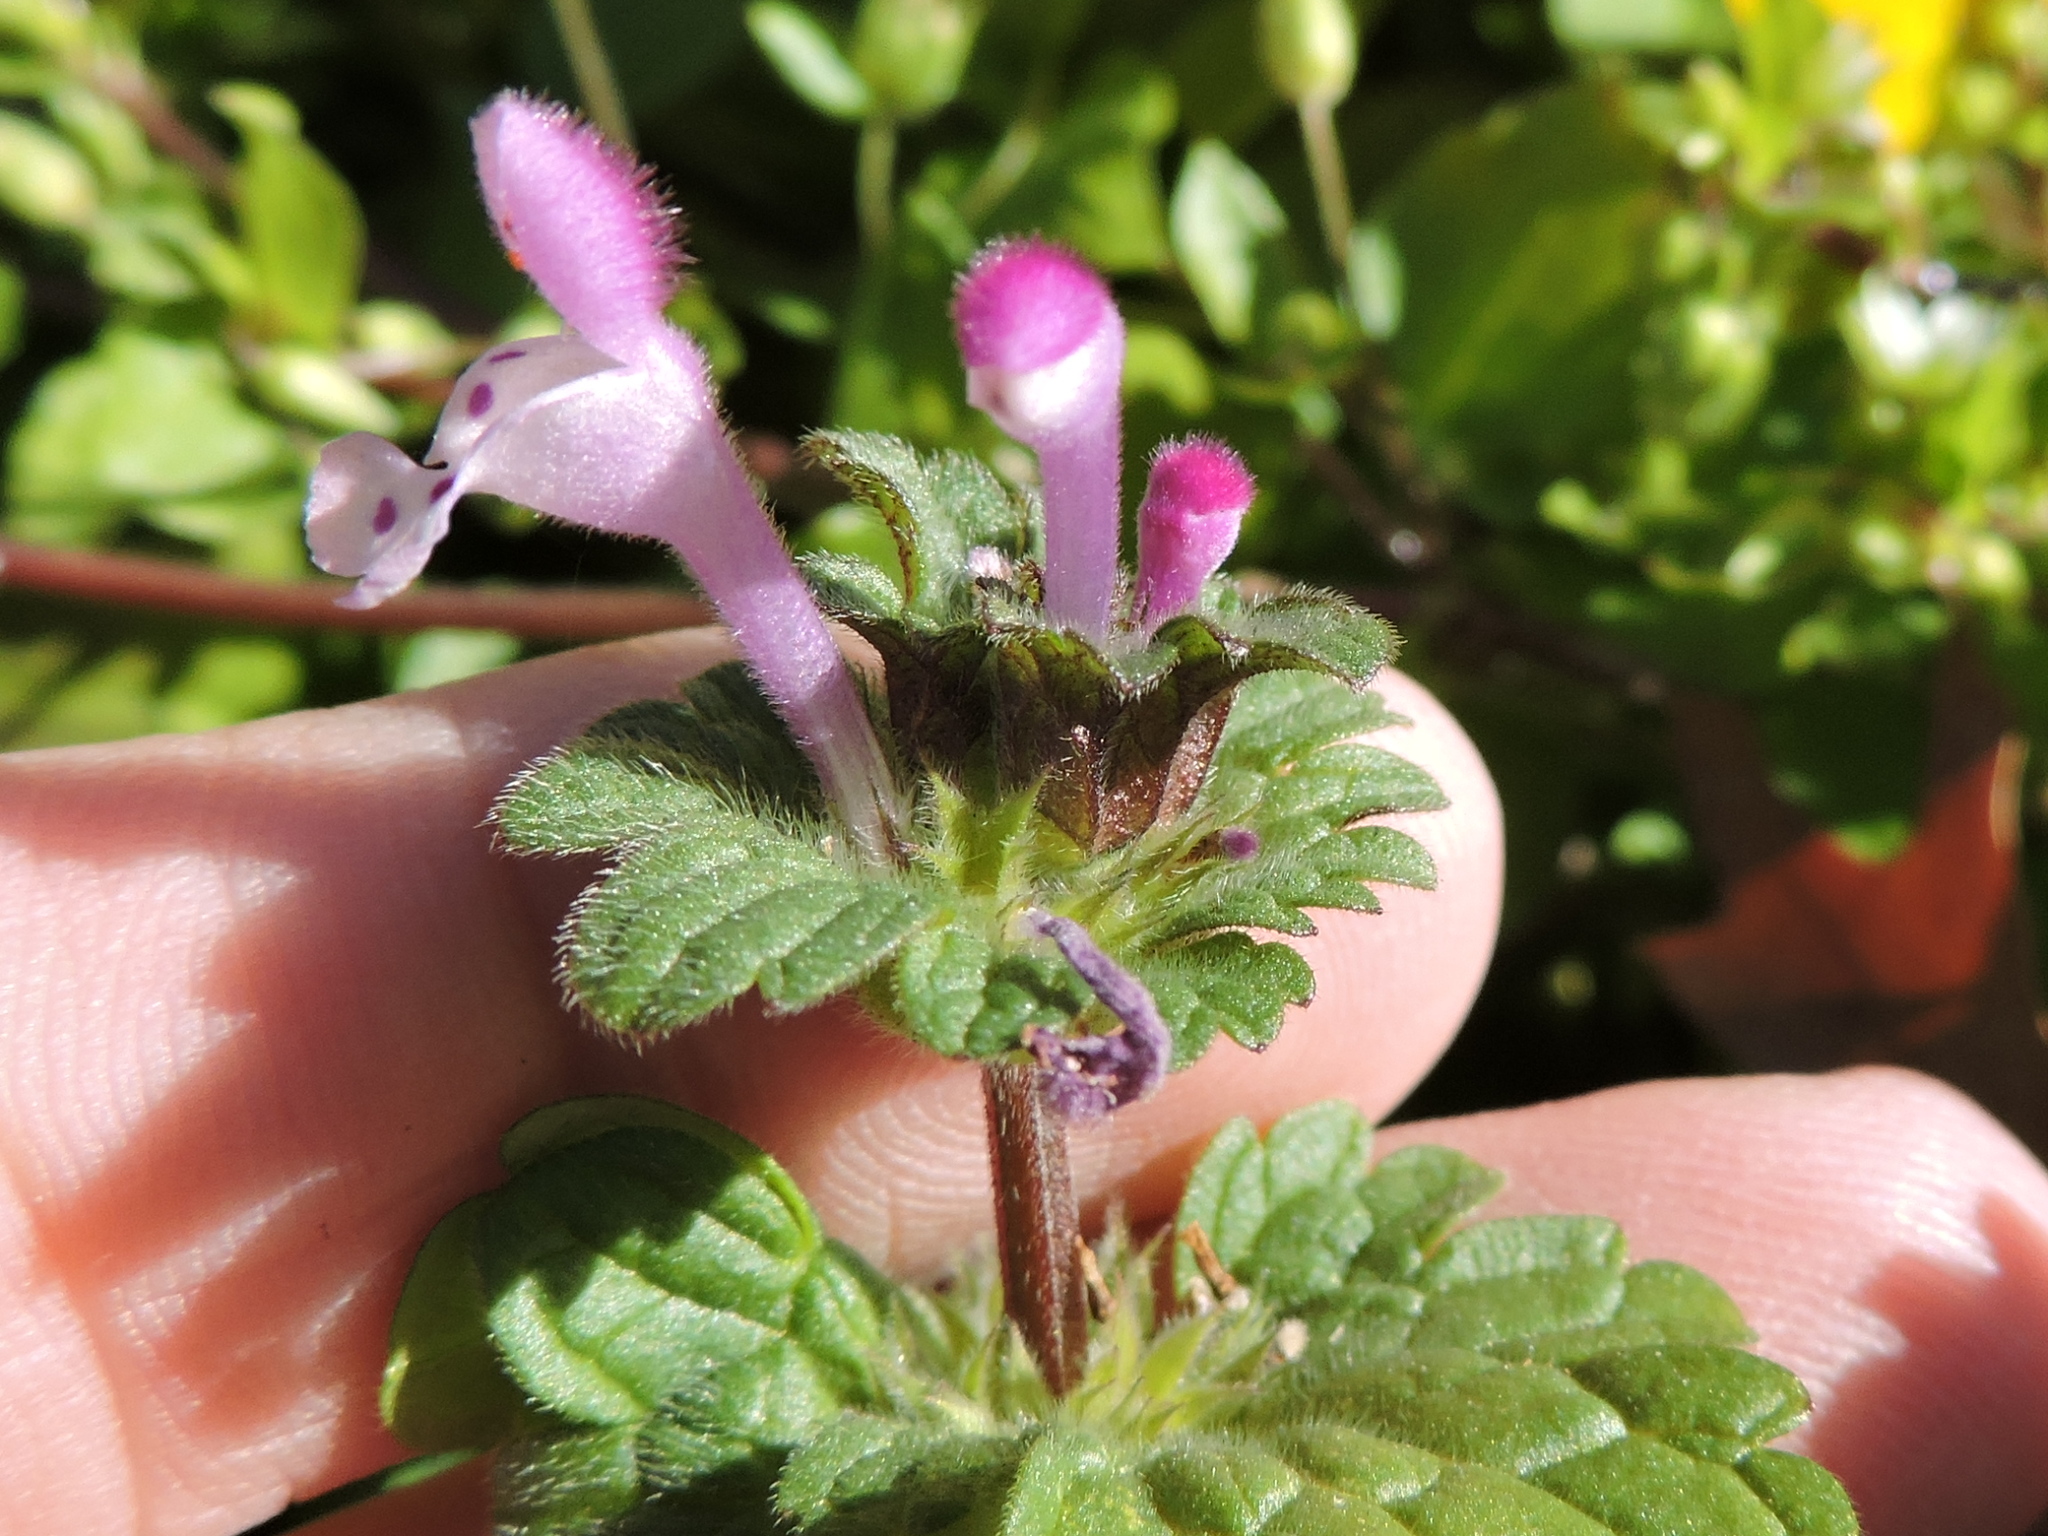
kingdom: Plantae
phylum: Tracheophyta
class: Magnoliopsida
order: Lamiales
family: Lamiaceae
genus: Lamium
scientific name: Lamium amplexicaule
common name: Henbit dead-nettle
